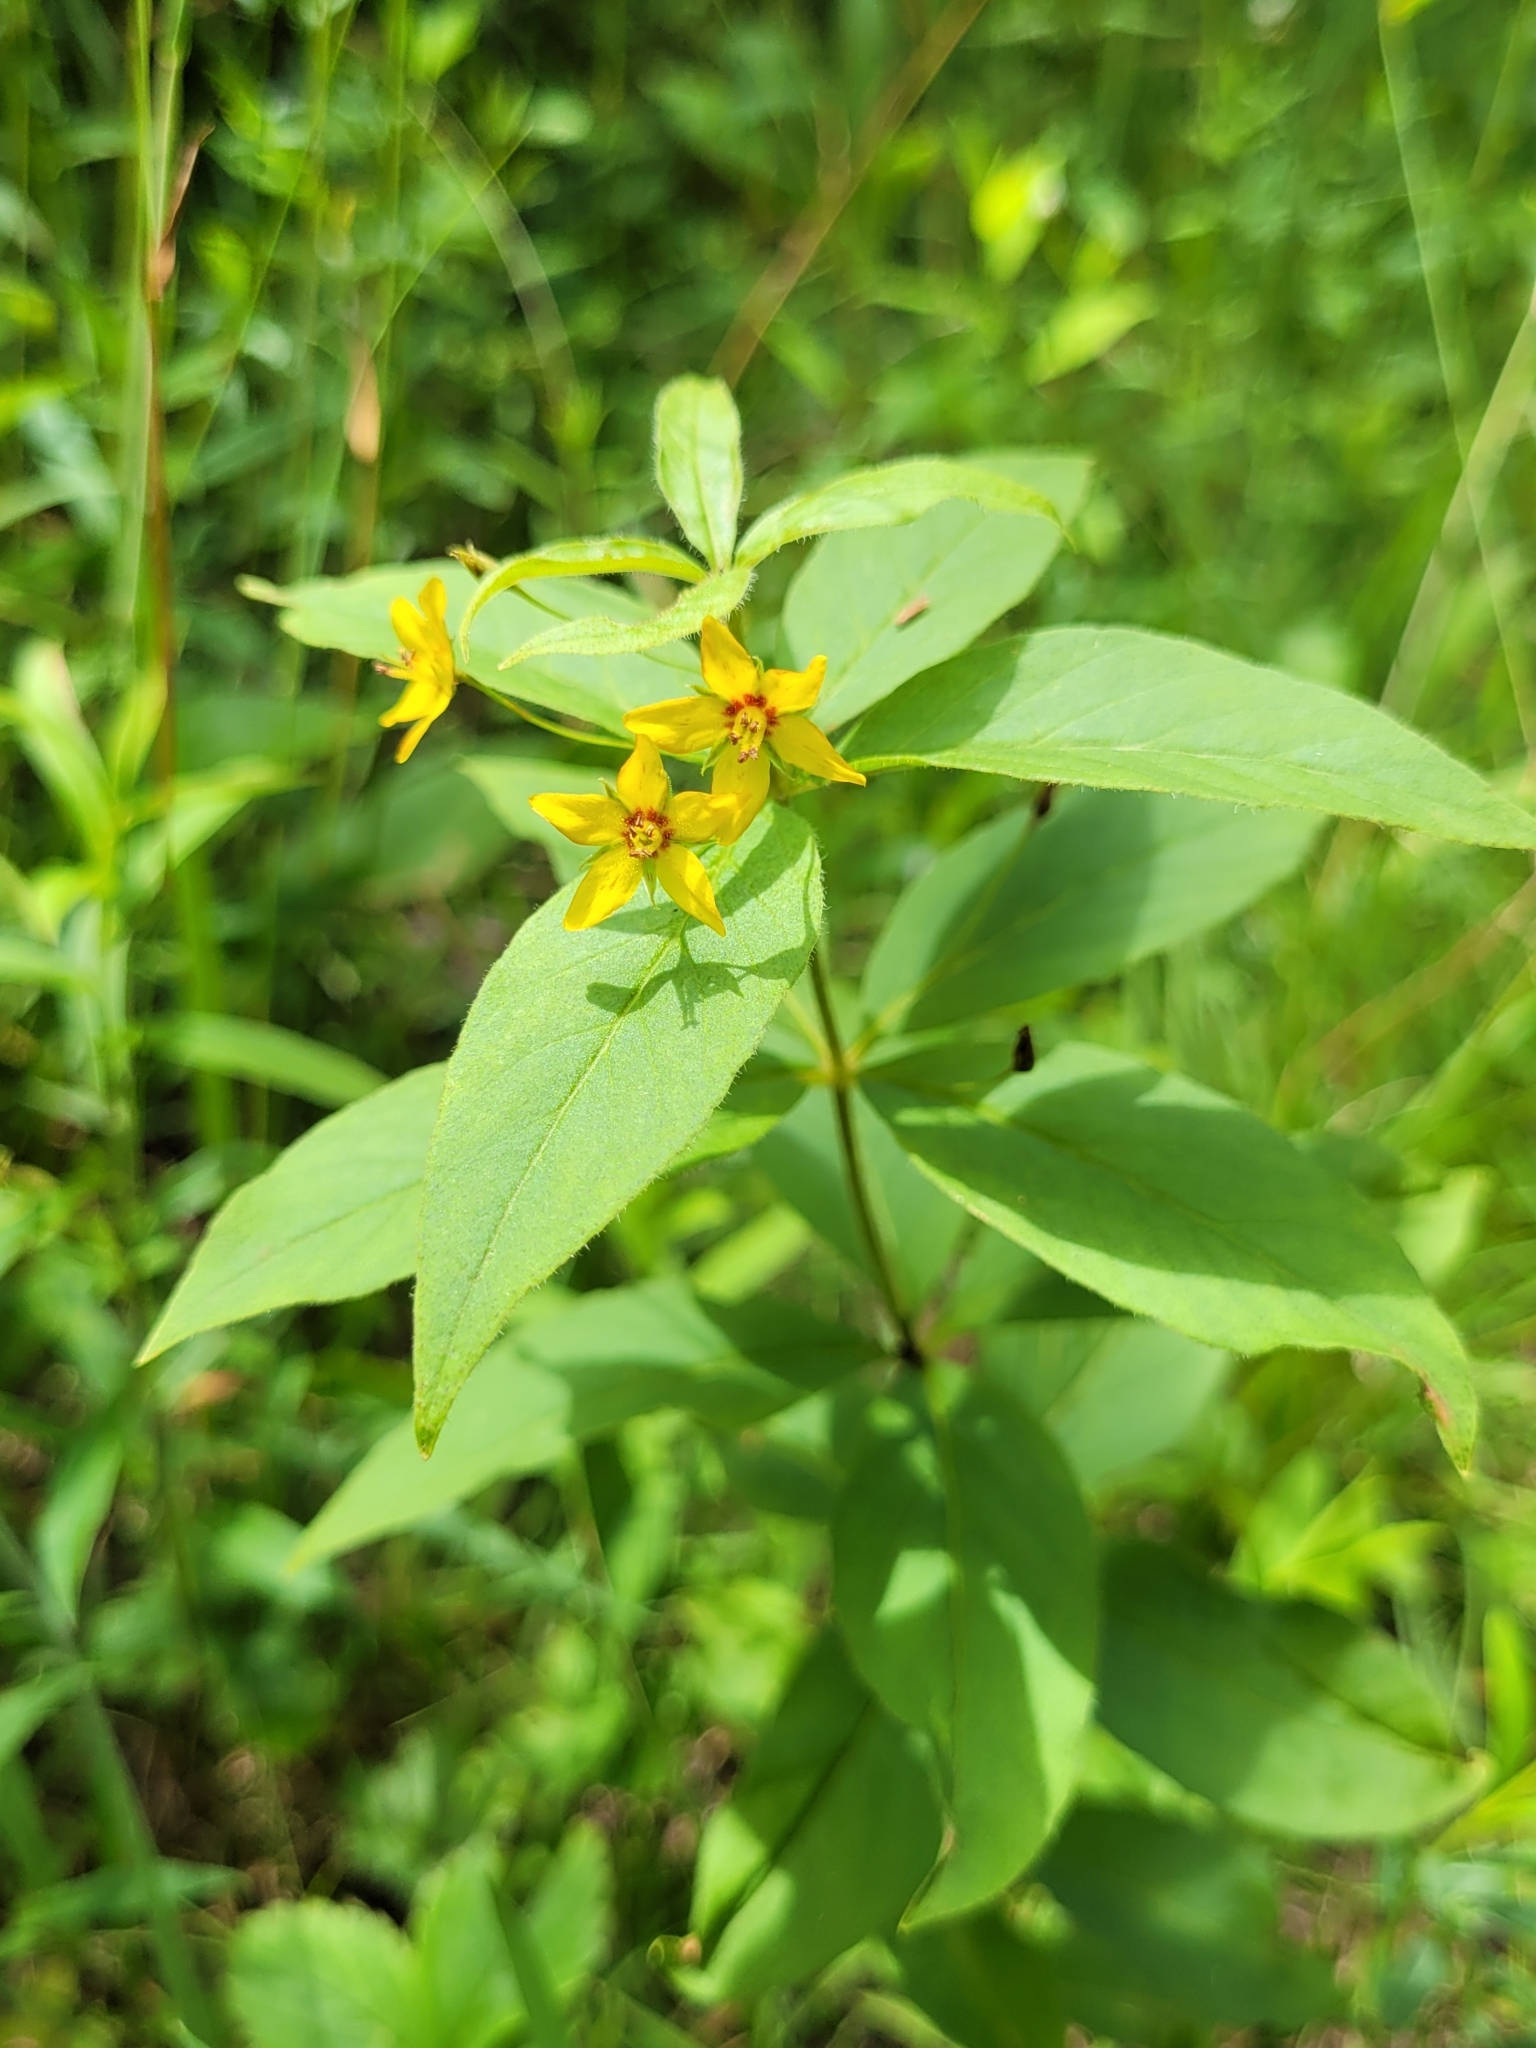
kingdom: Plantae
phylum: Tracheophyta
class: Magnoliopsida
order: Ericales
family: Primulaceae
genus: Lysimachia
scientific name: Lysimachia quadrifolia
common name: Whorled loosestrife
